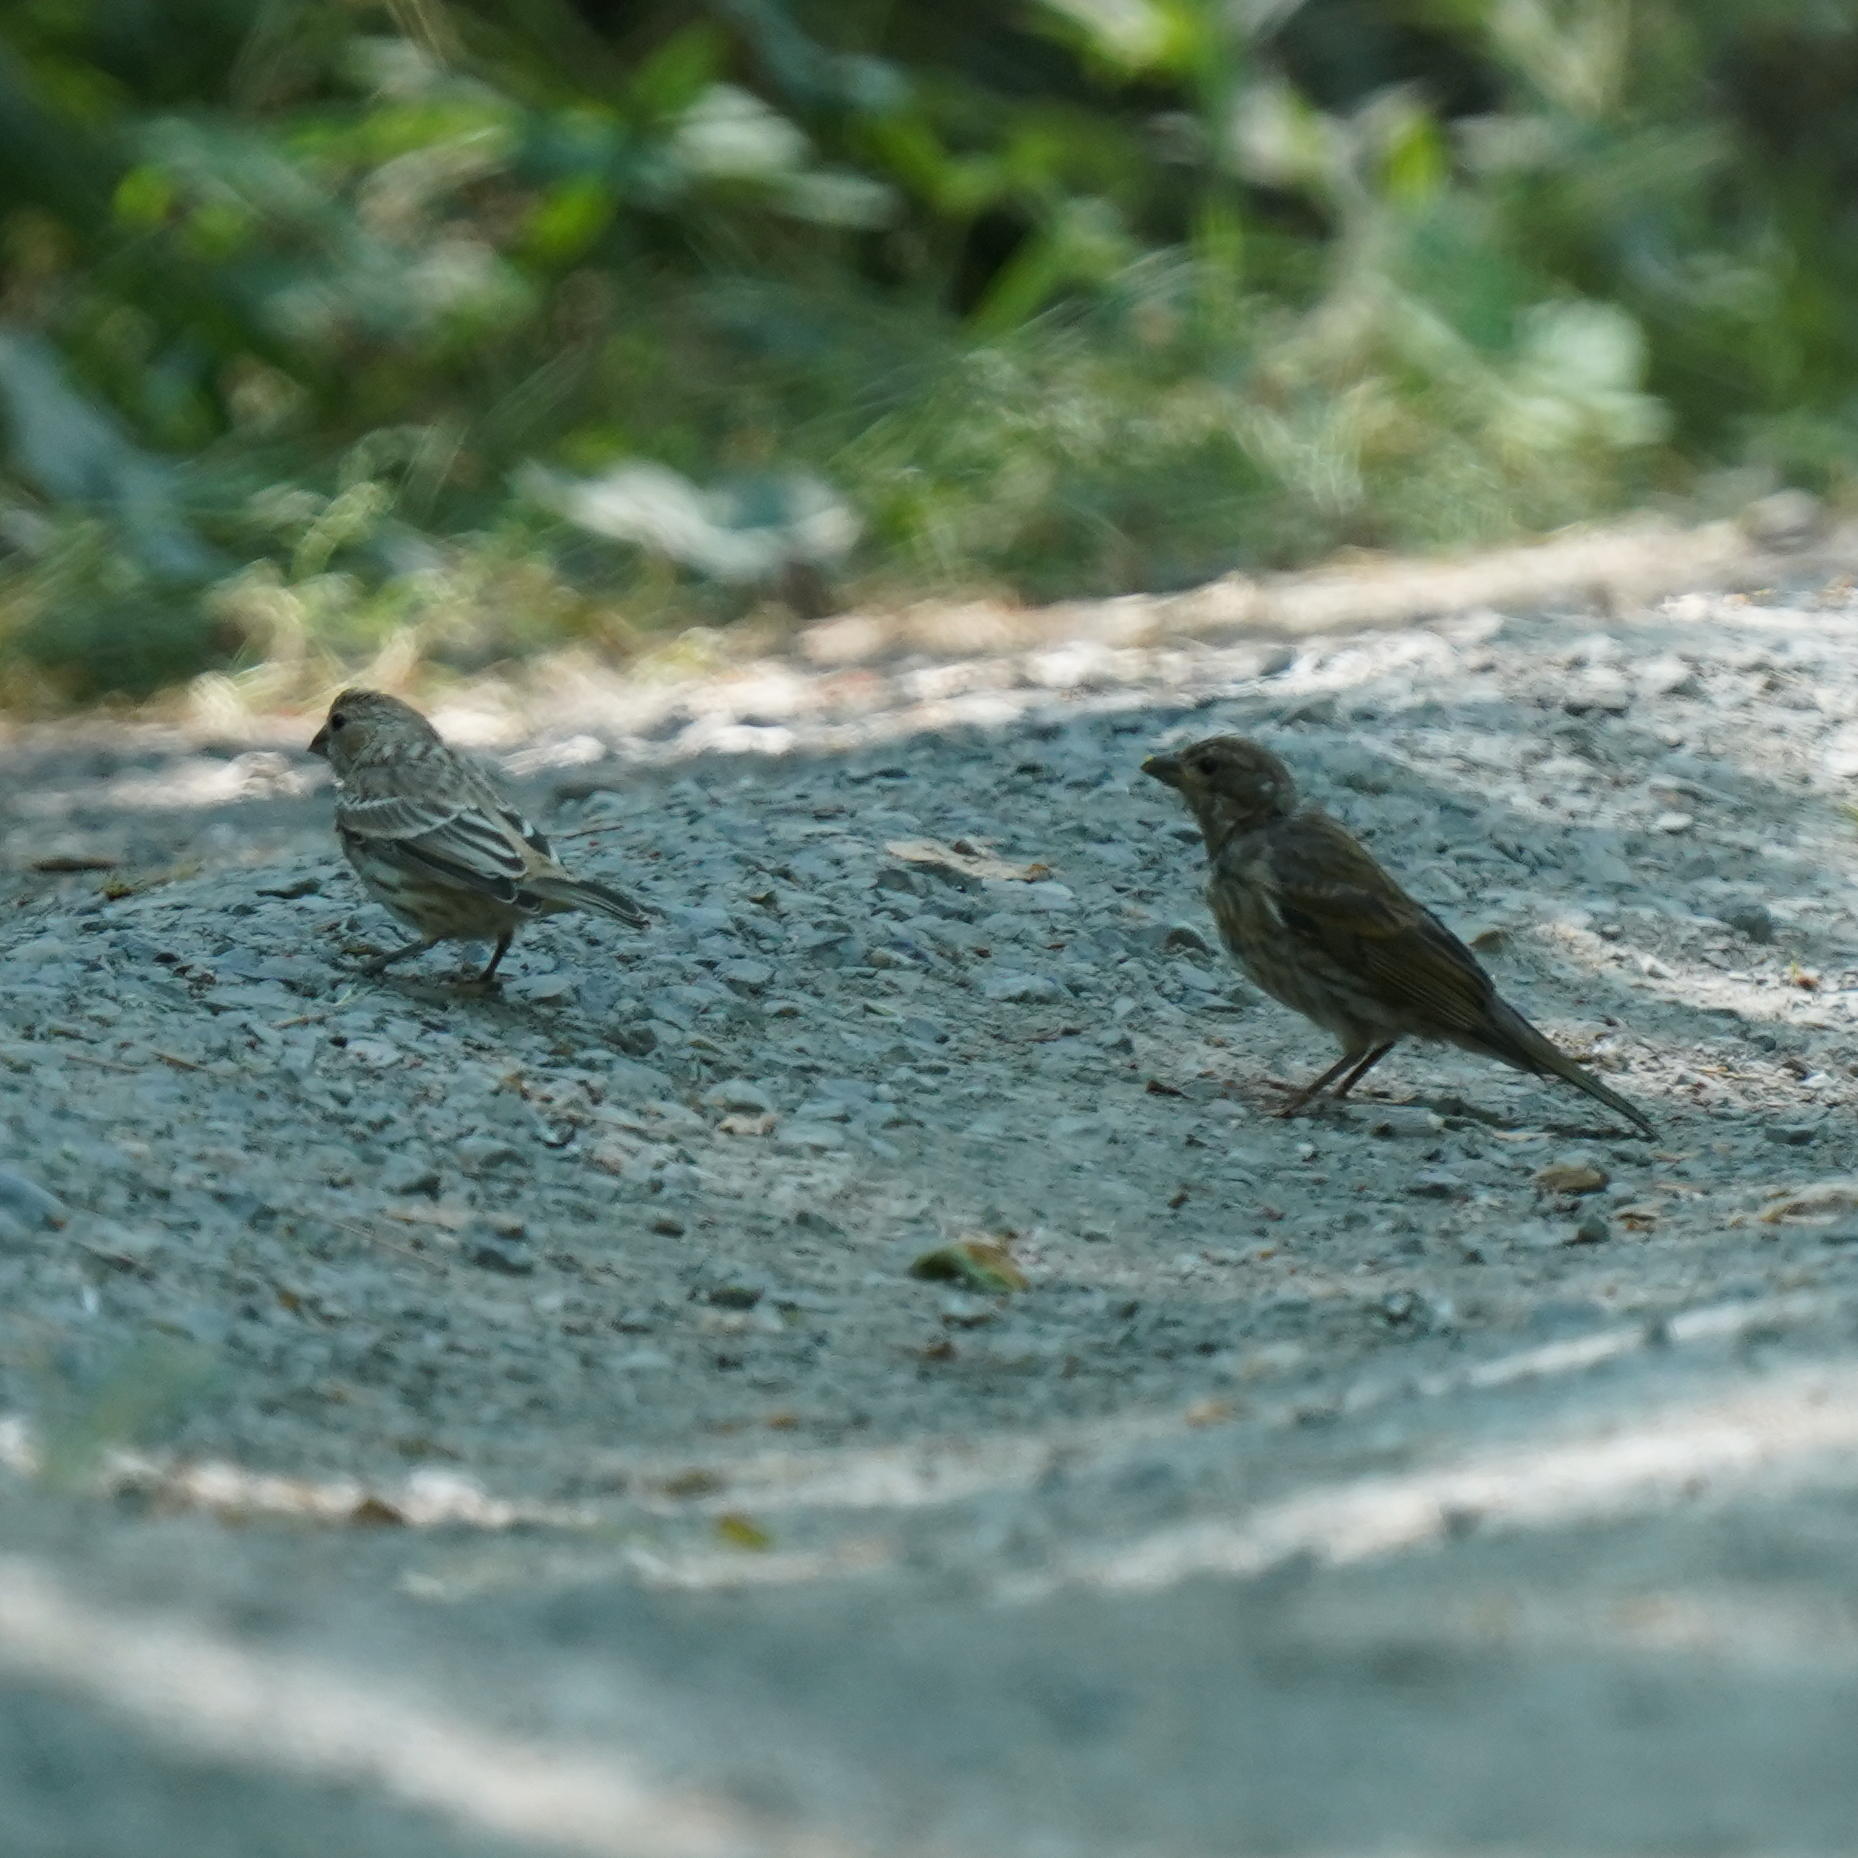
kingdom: Animalia
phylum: Chordata
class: Aves
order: Passeriformes
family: Fringillidae
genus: Haemorhous
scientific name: Haemorhous mexicanus
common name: House finch
